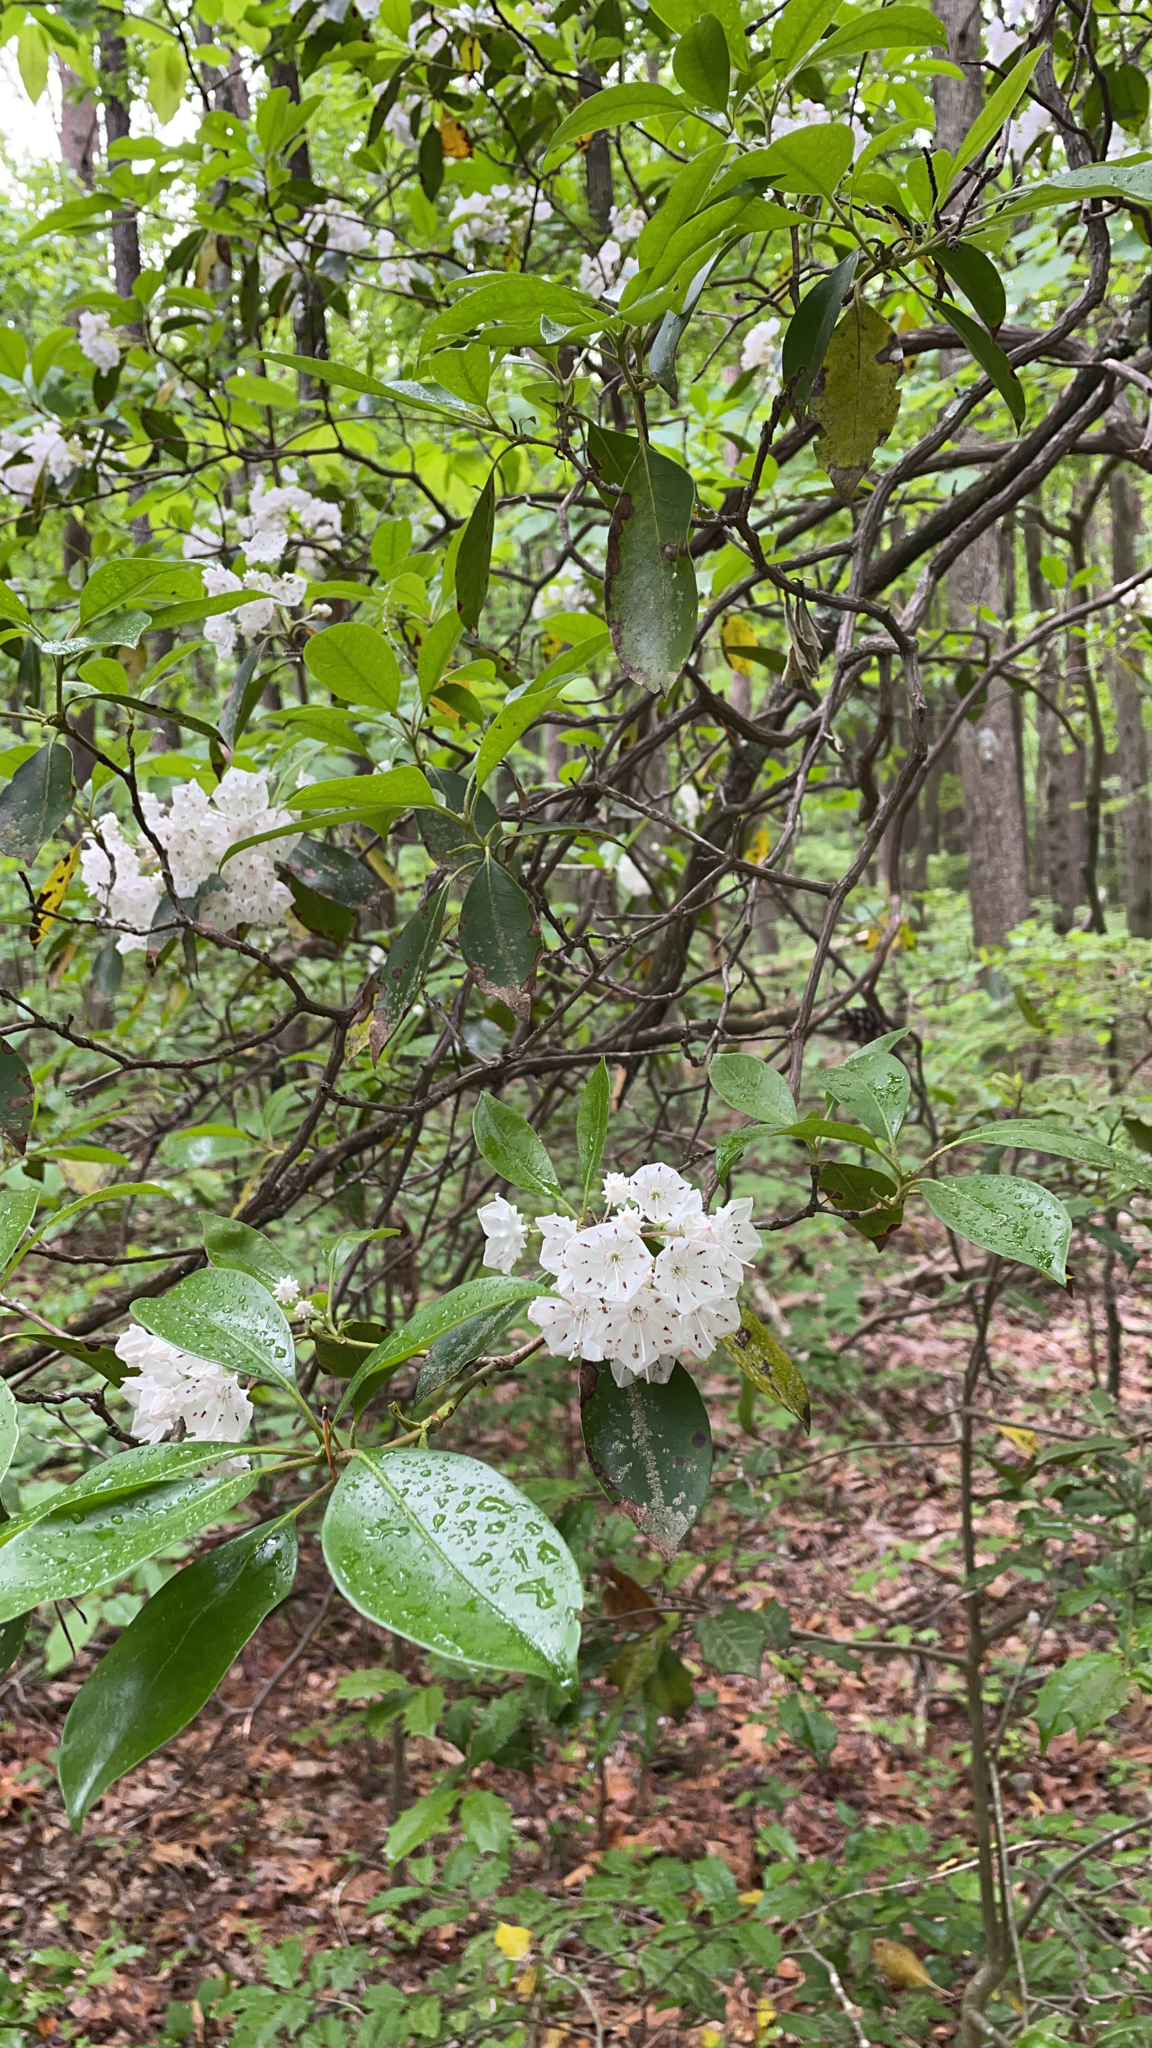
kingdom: Plantae
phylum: Tracheophyta
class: Magnoliopsida
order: Ericales
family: Ericaceae
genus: Kalmia
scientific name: Kalmia latifolia
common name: Mountain-laurel
